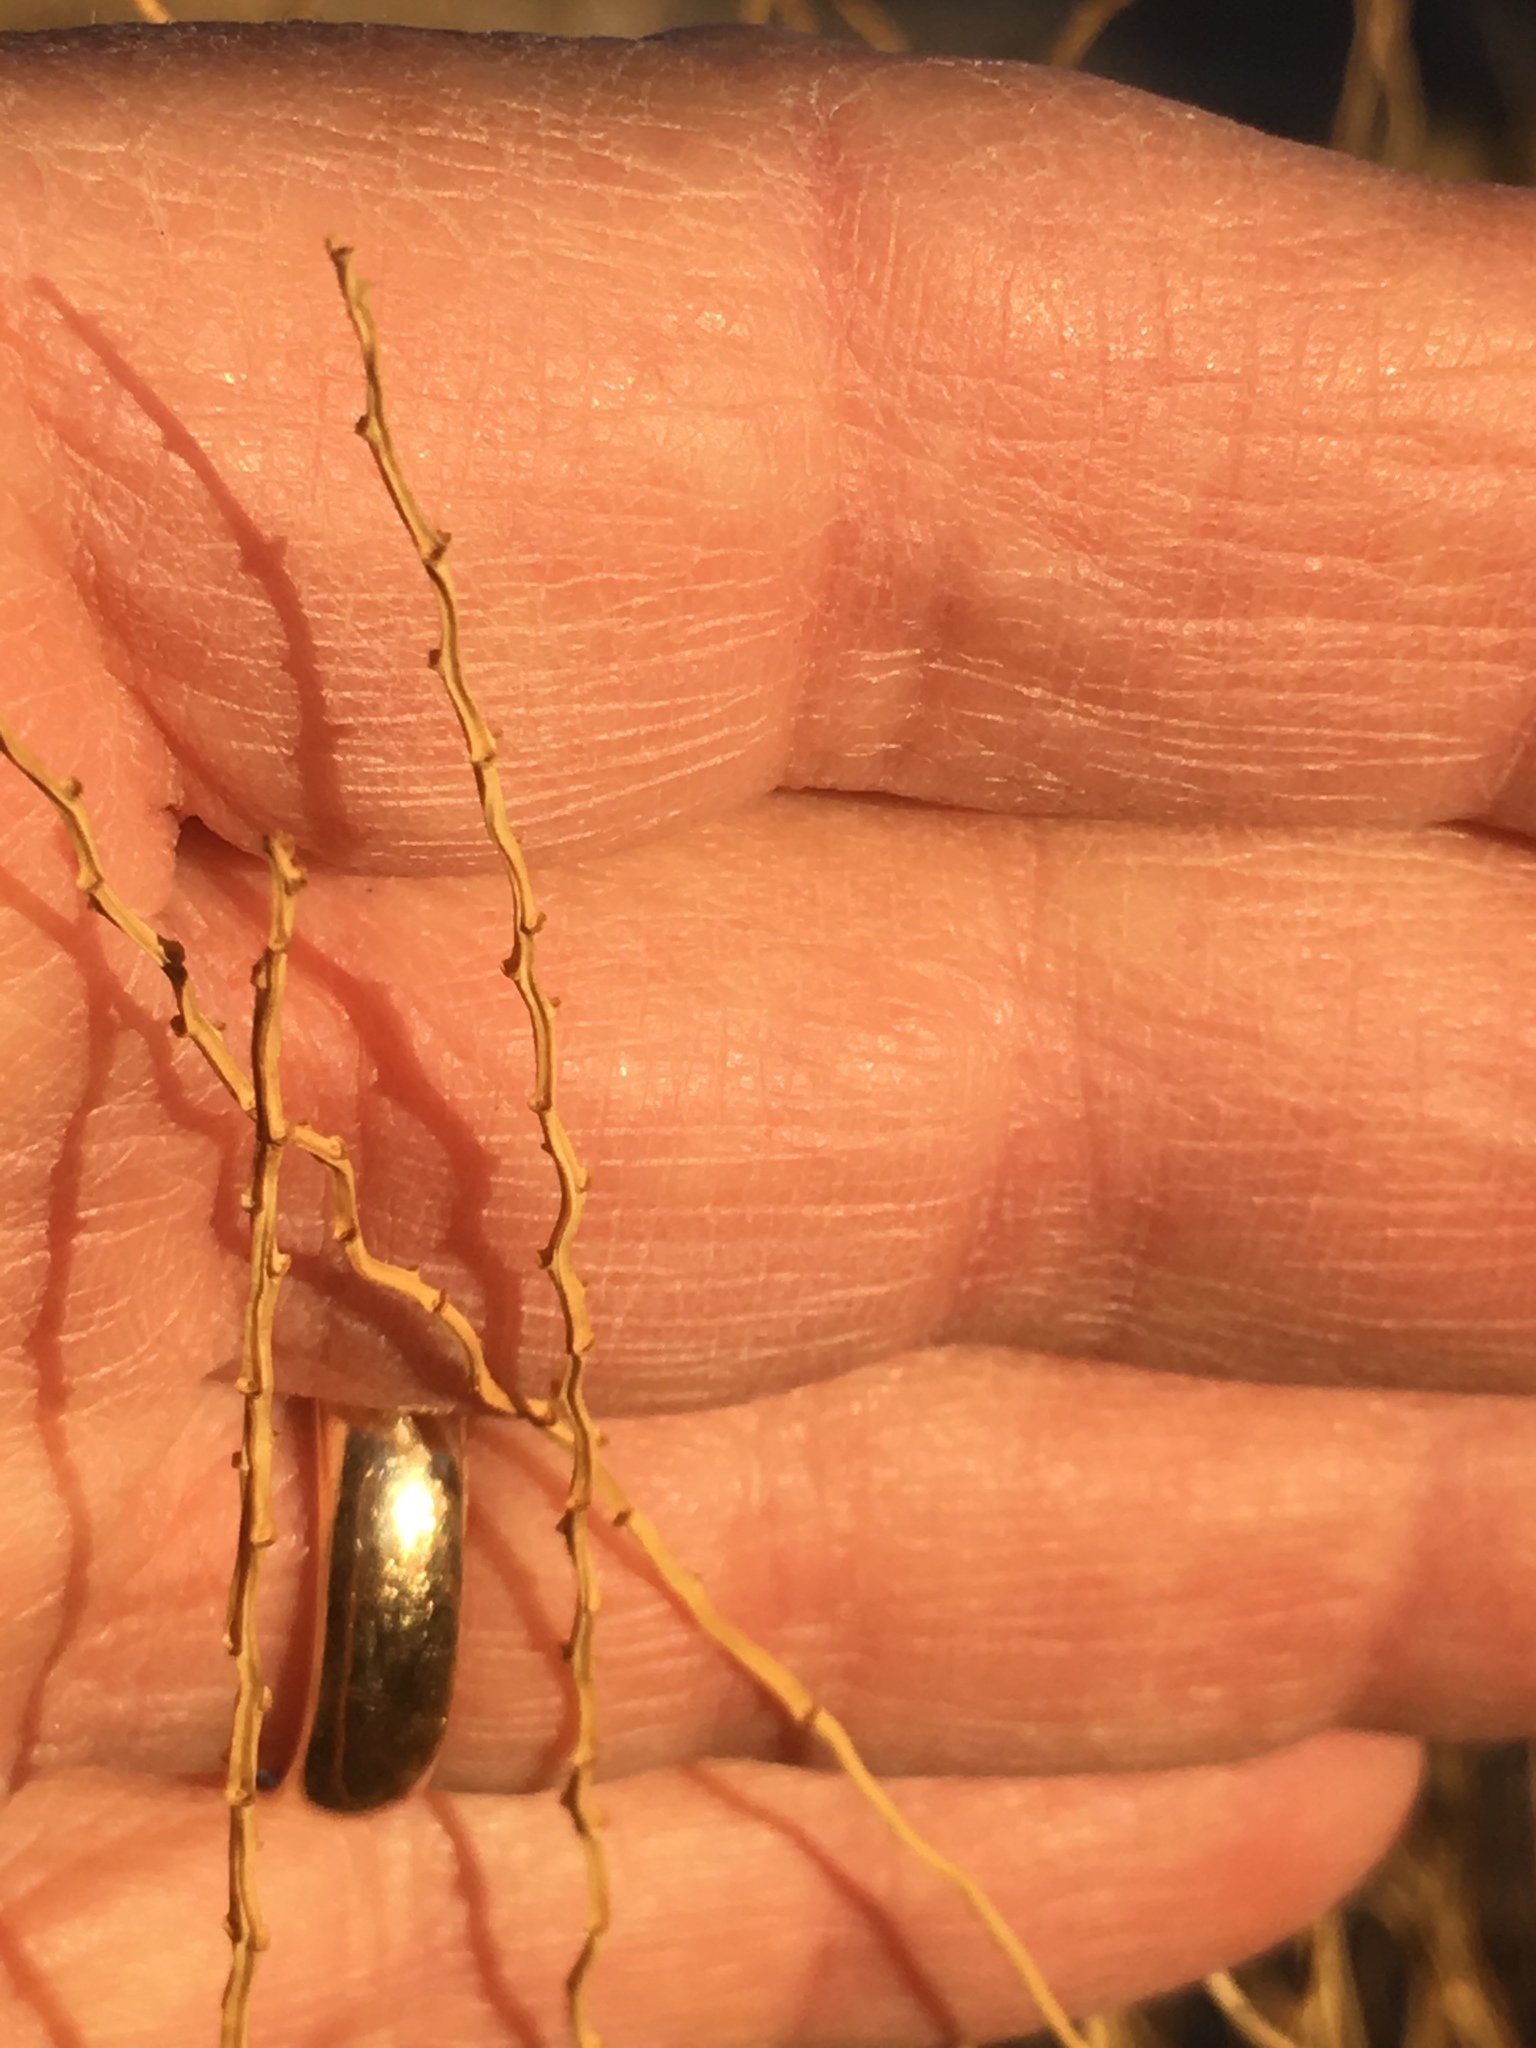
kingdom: Plantae
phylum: Tracheophyta
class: Liliopsida
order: Poales
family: Poaceae
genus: Hilaria
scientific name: Hilaria rigida
